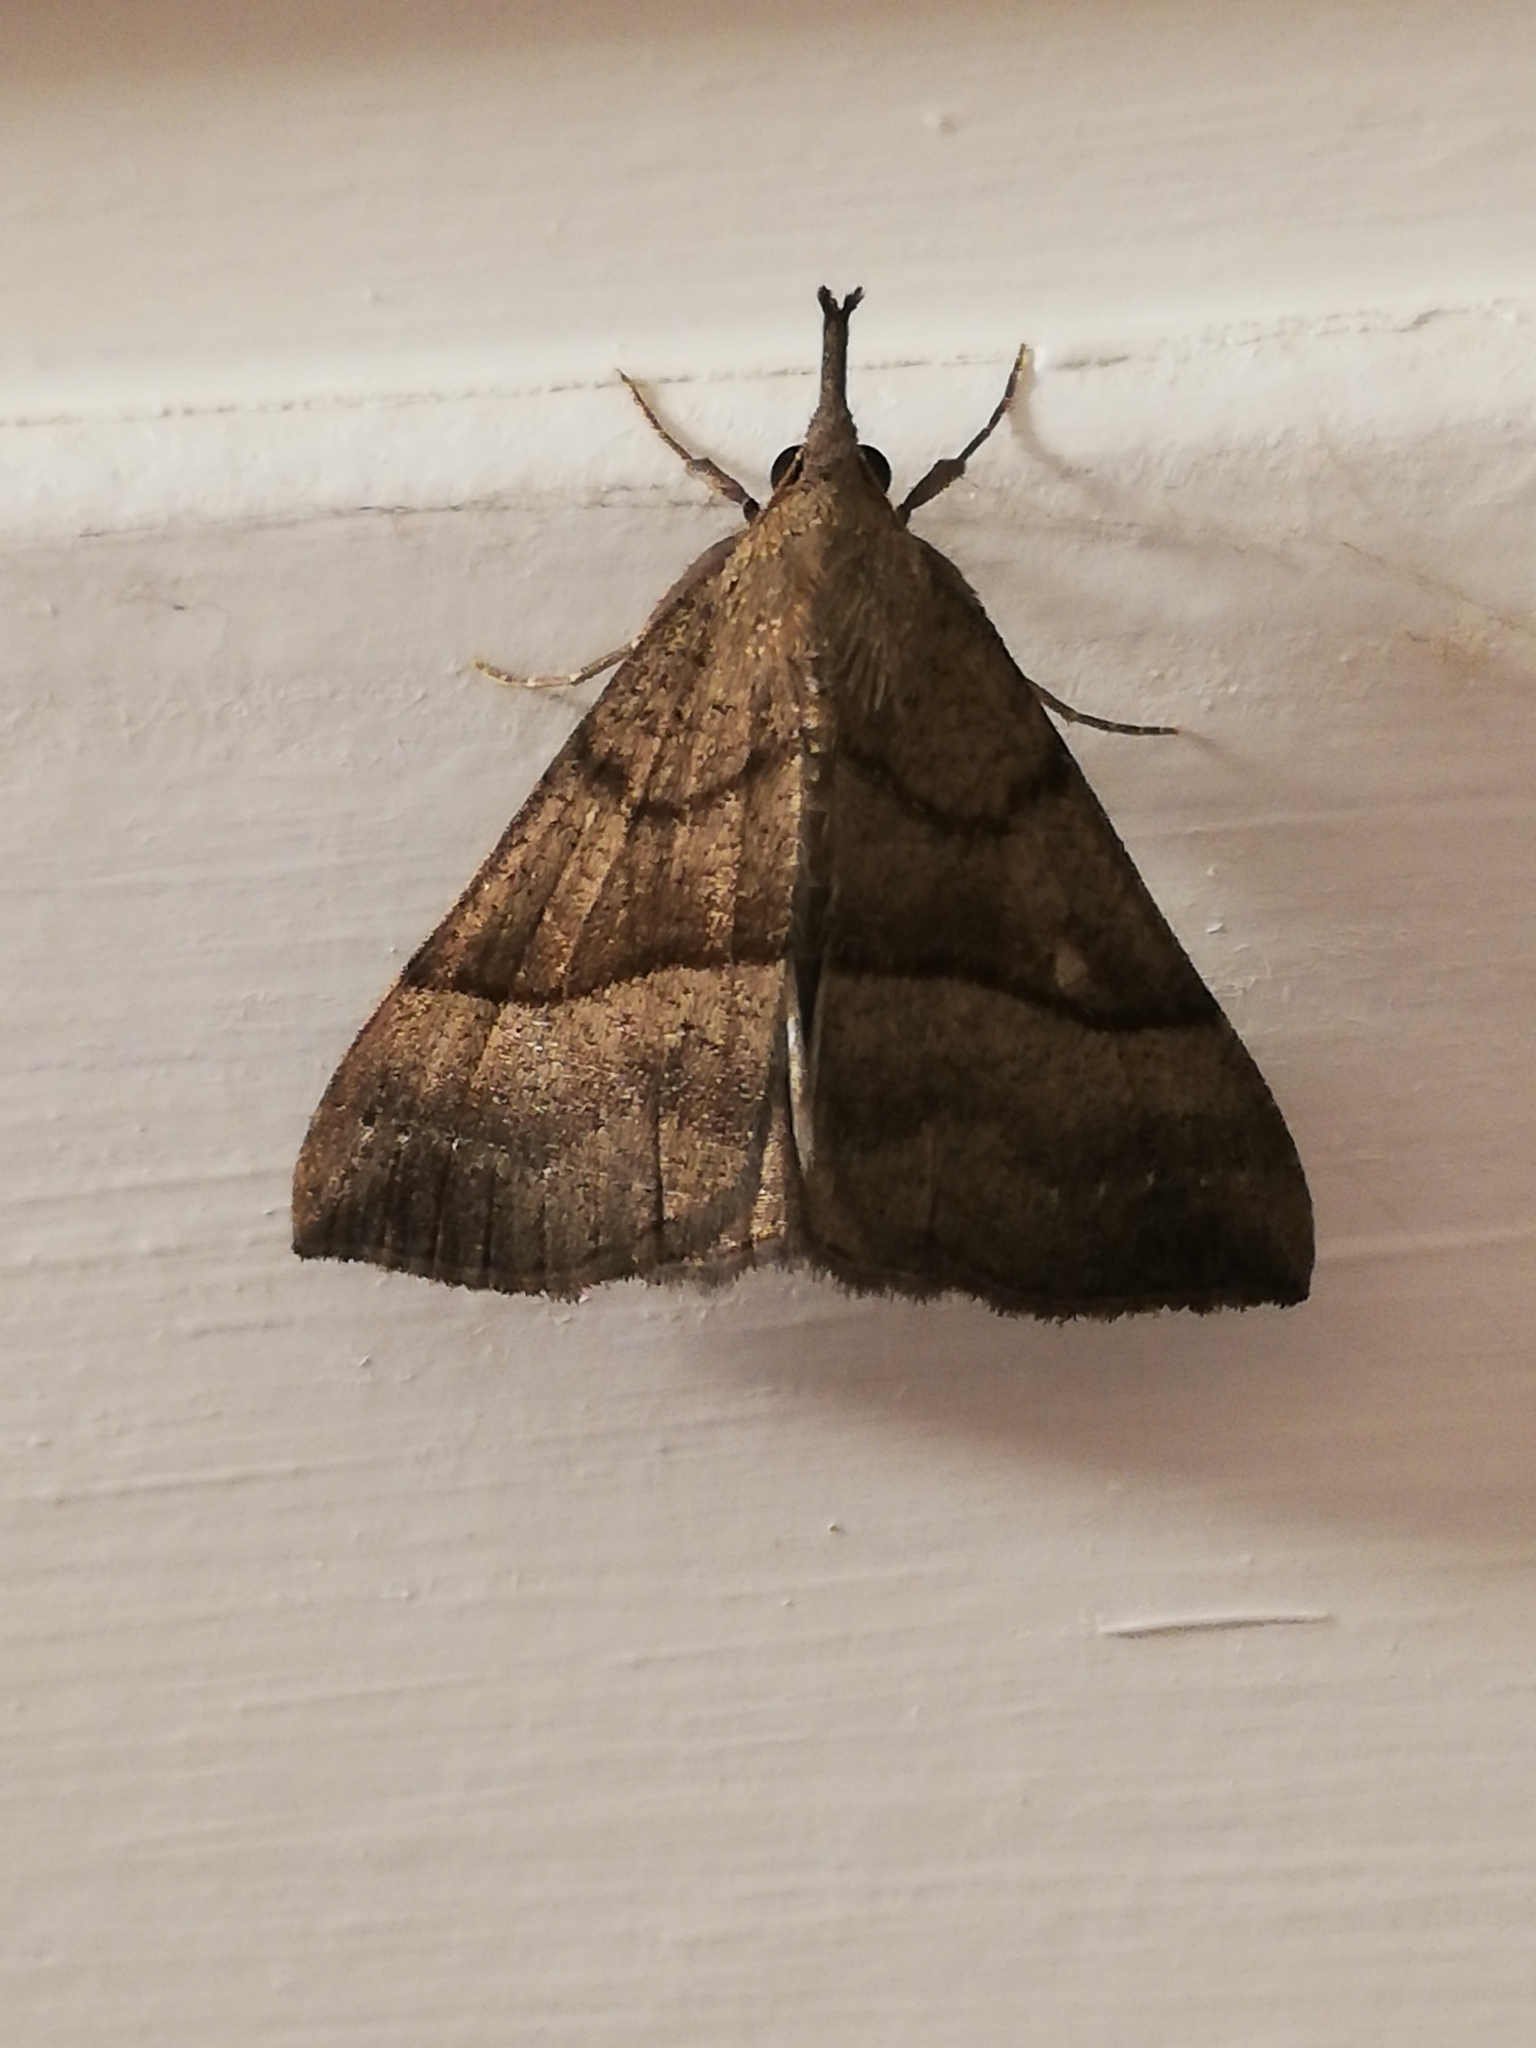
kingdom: Animalia
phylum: Arthropoda
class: Insecta
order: Lepidoptera
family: Erebidae
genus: Hypena
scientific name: Hypena proboscidalis
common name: Snout
